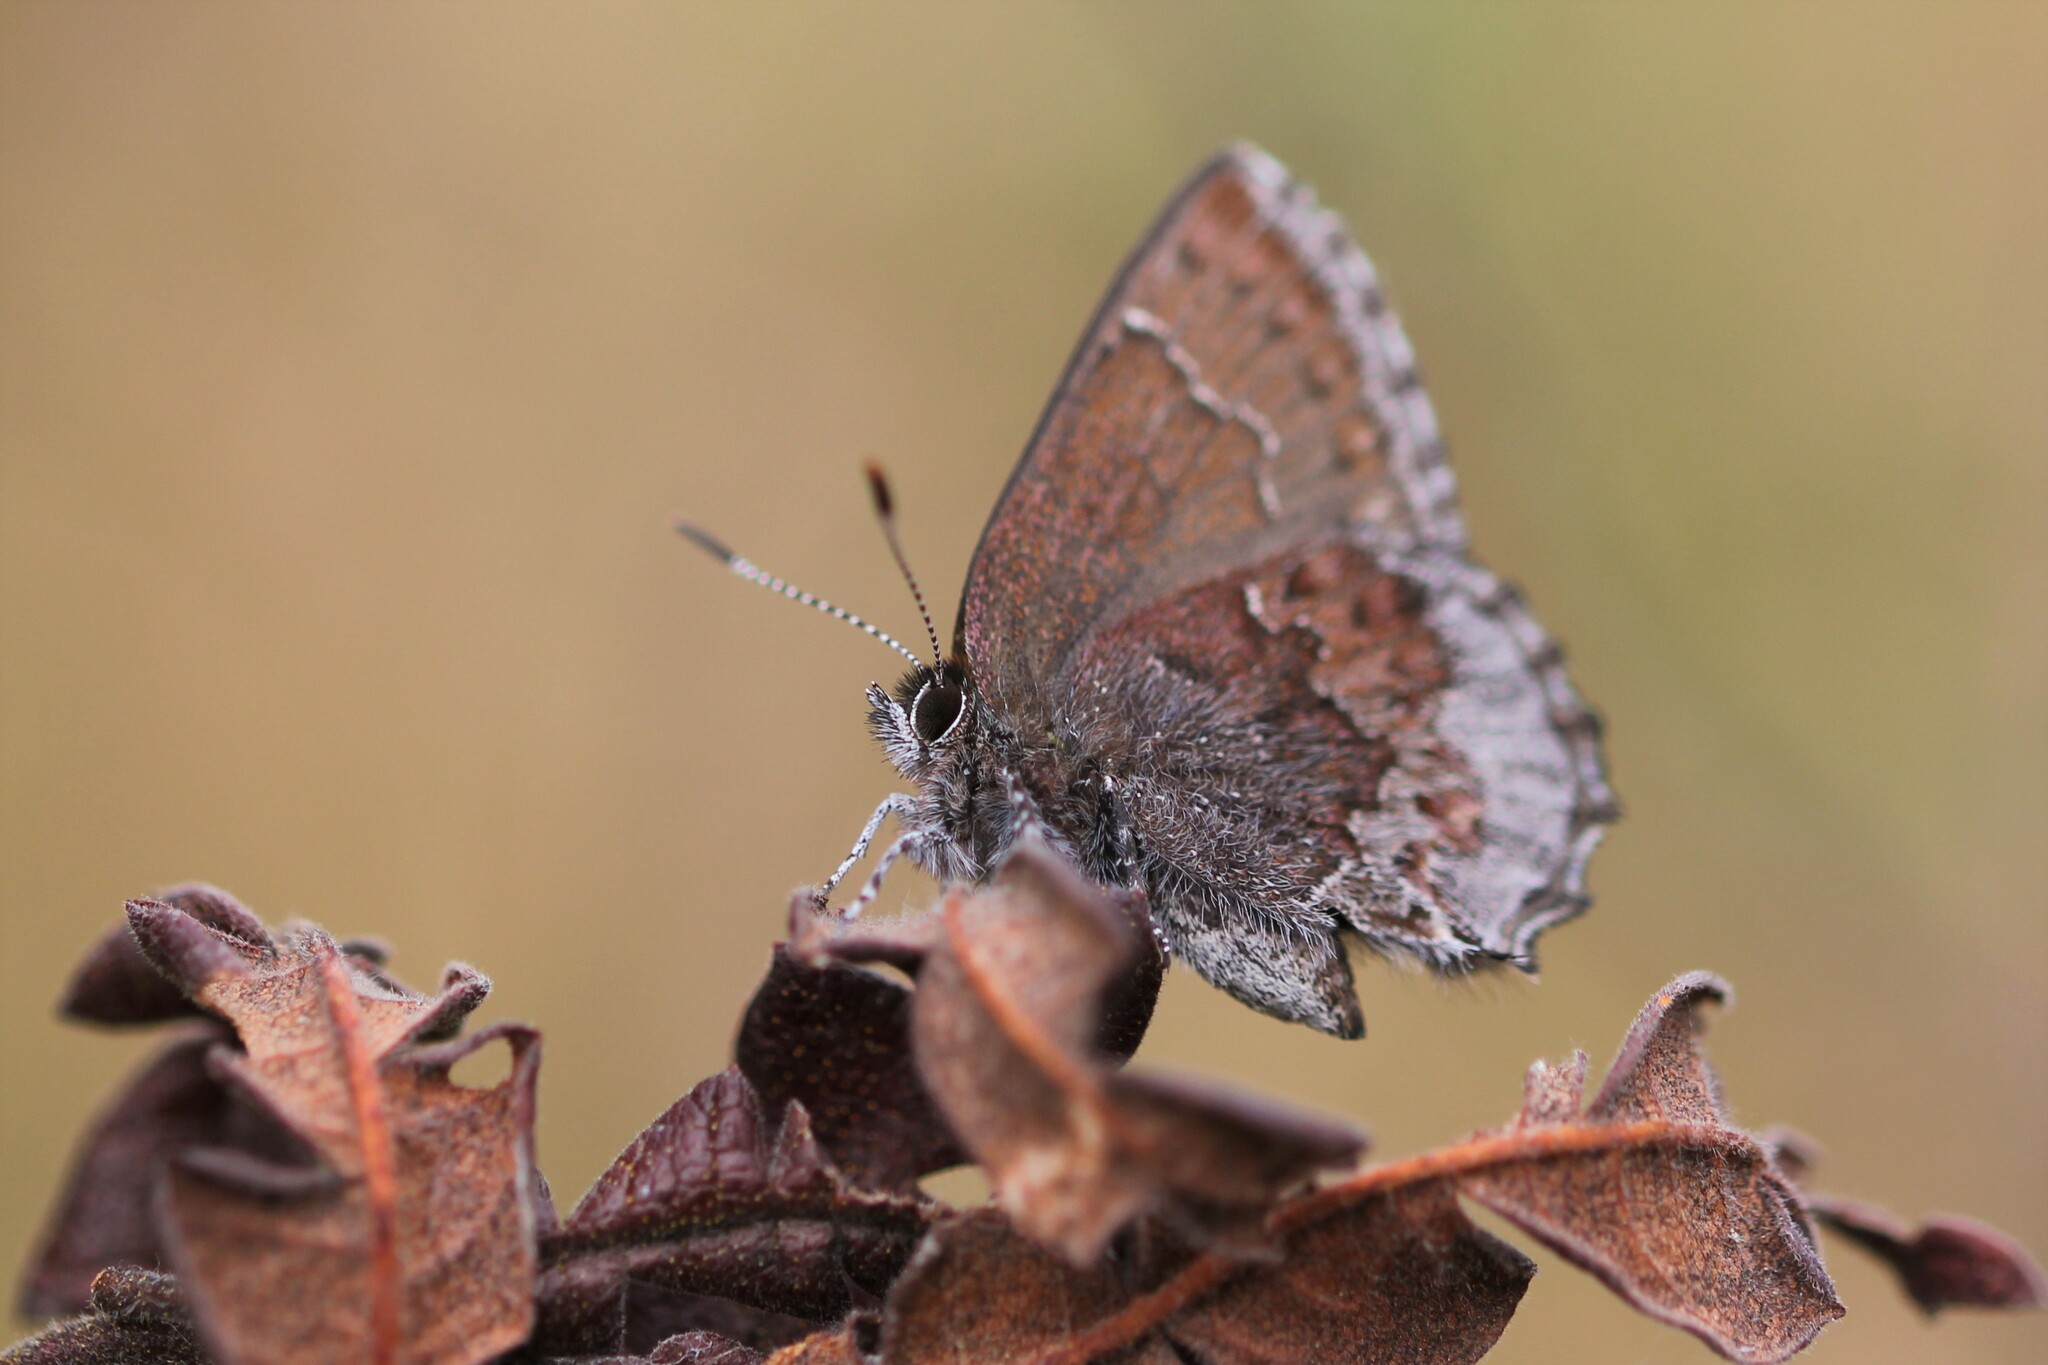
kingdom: Animalia
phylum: Arthropoda
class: Insecta
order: Lepidoptera
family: Lycaenidae
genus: Callophrys
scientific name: Callophrys polios
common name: Hoary elfin
